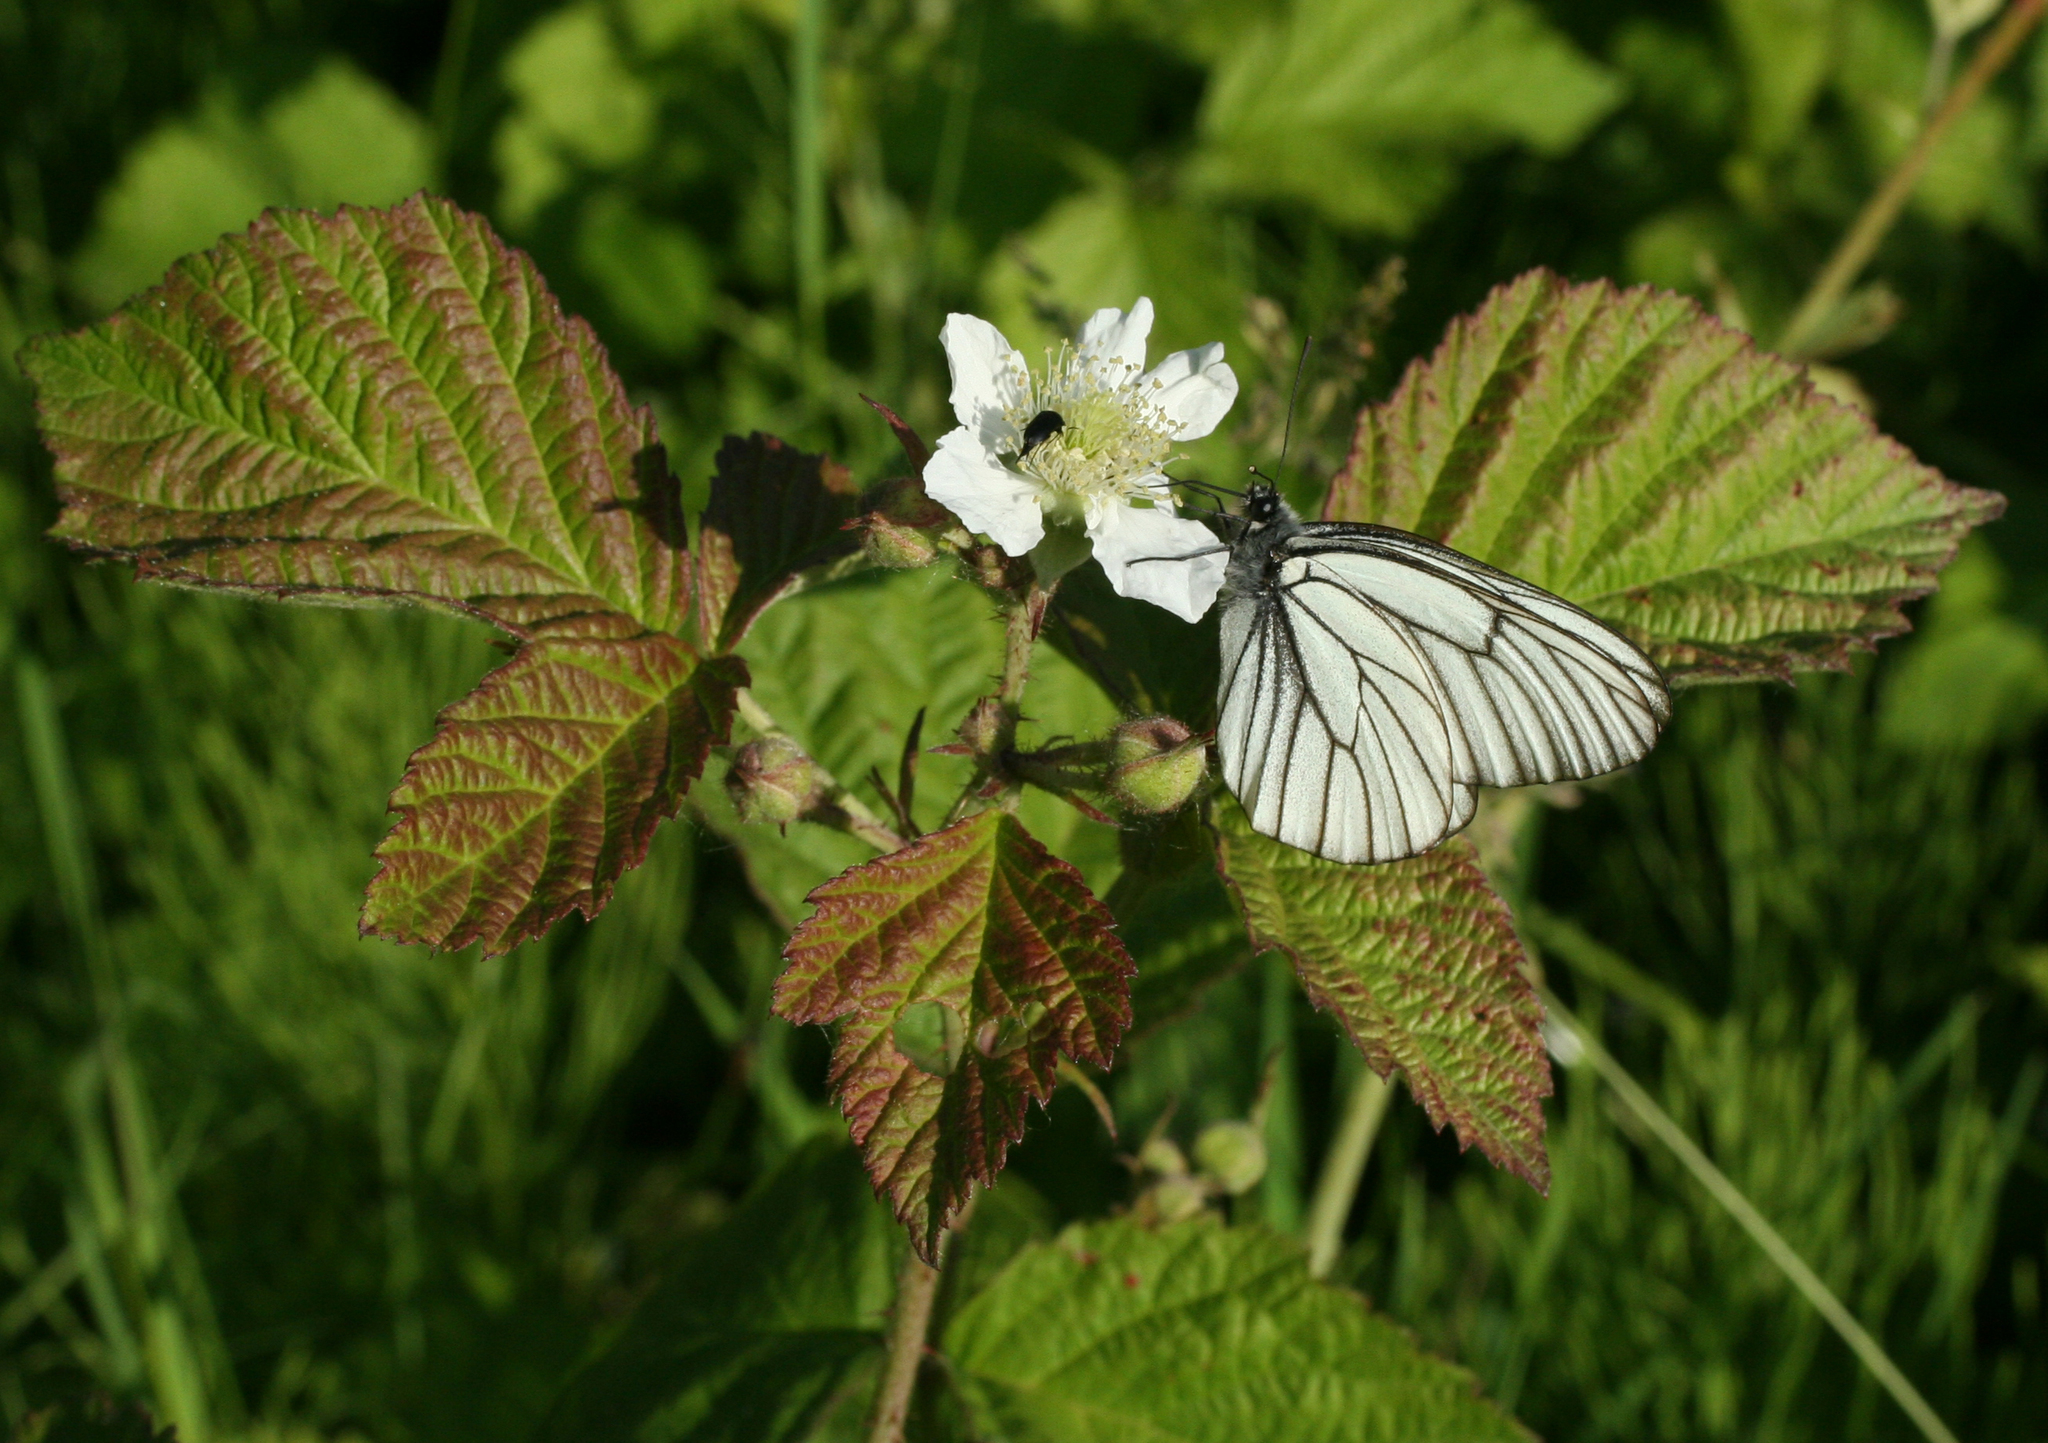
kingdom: Animalia
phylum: Arthropoda
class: Insecta
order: Lepidoptera
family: Pieridae
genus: Aporia
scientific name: Aporia crataegi
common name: Black-veined white
